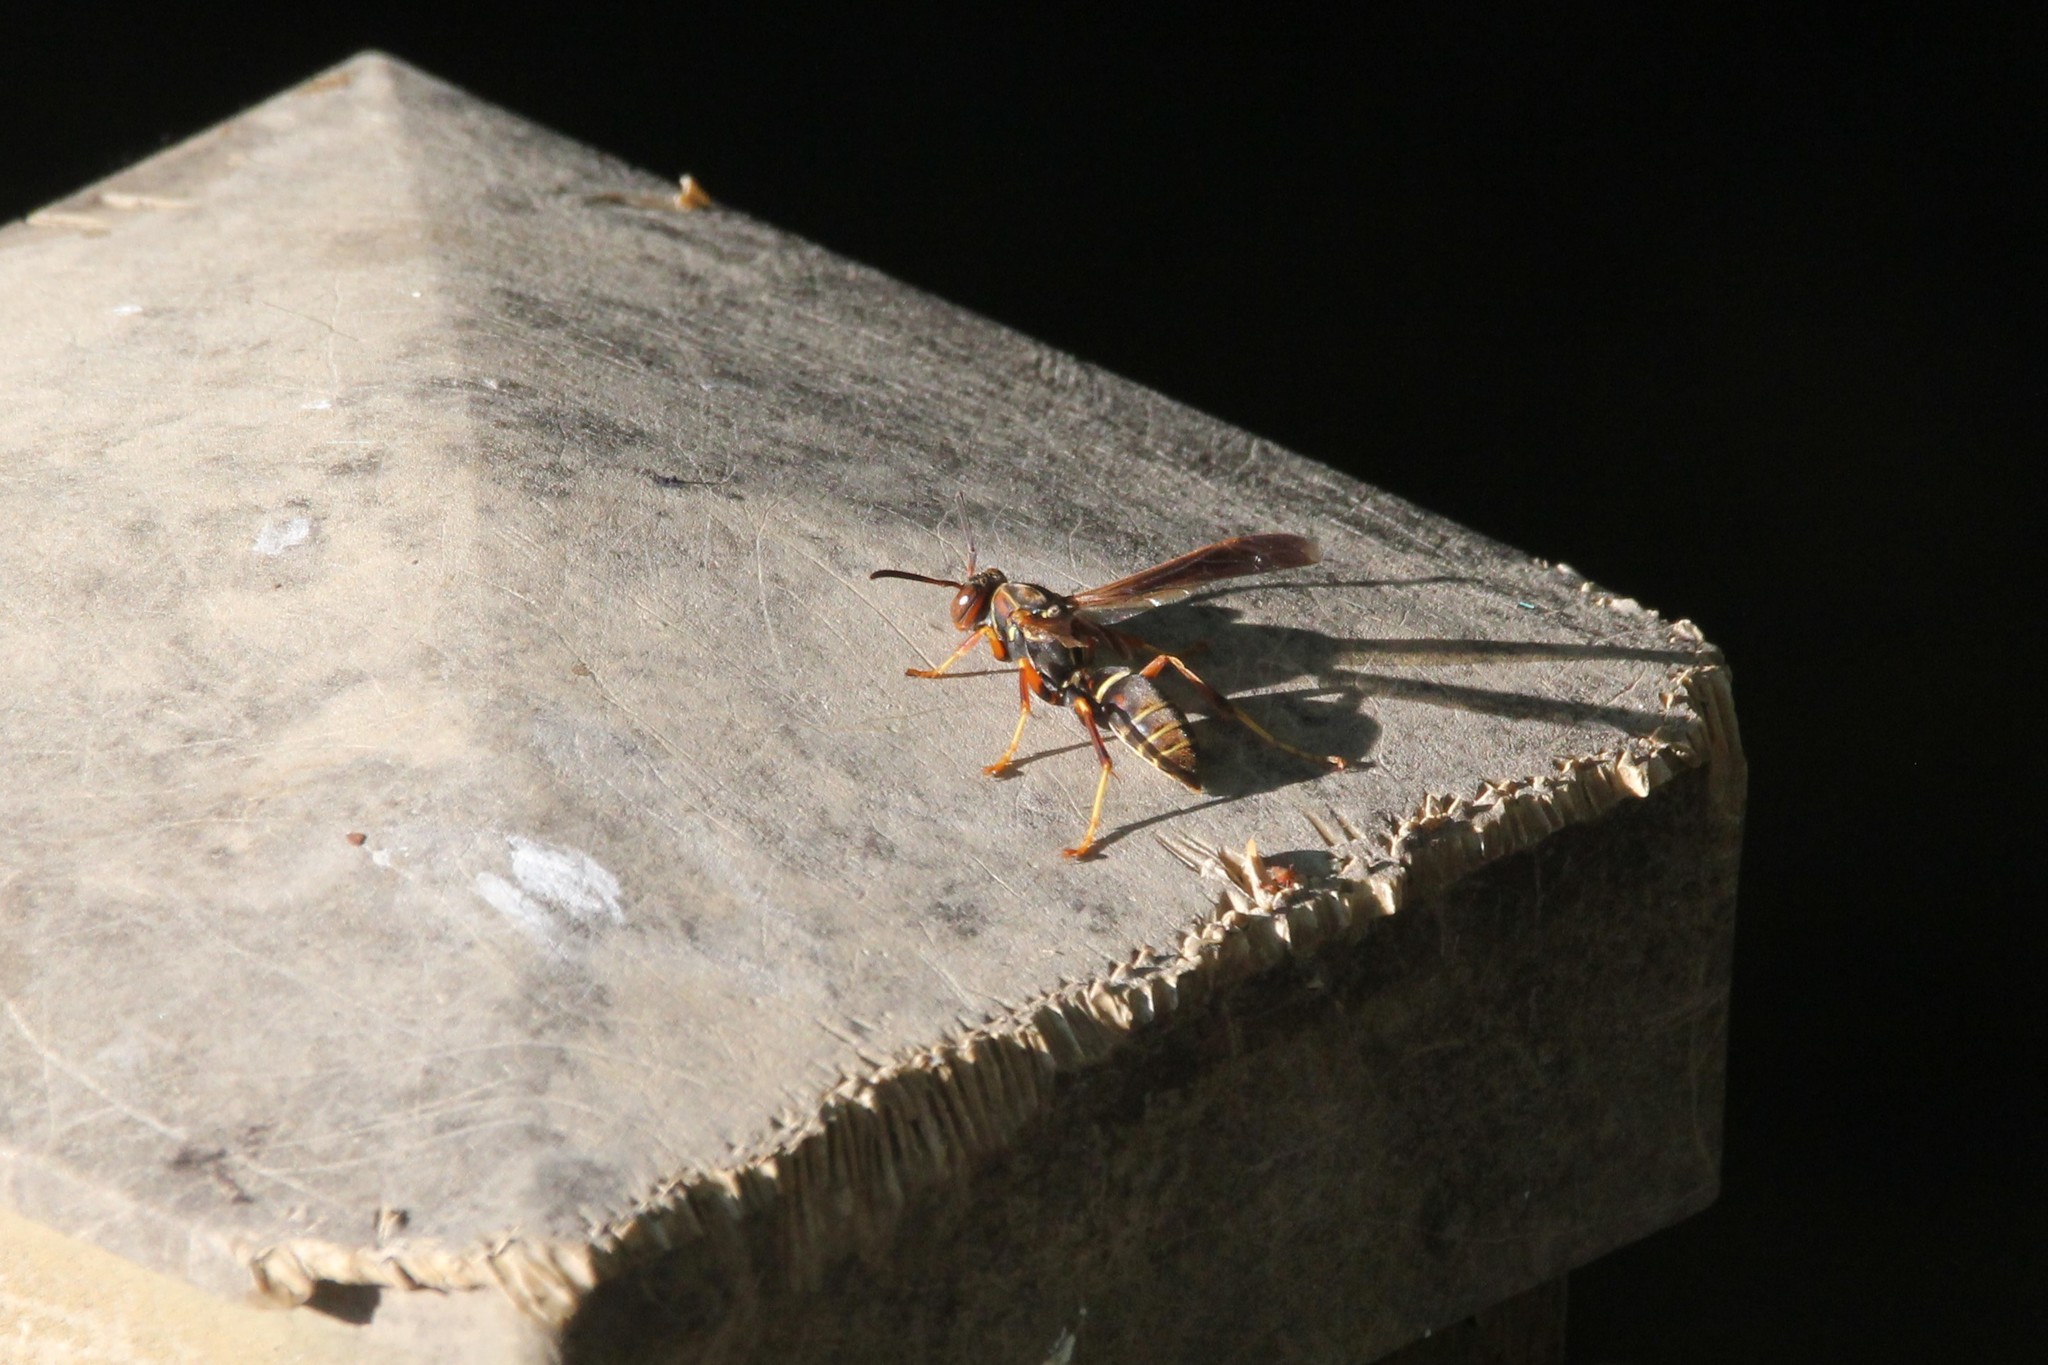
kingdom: Animalia
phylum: Arthropoda
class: Insecta
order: Hymenoptera
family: Eumenidae
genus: Polistes
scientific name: Polistes fuscatus
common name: Dark paper wasp
